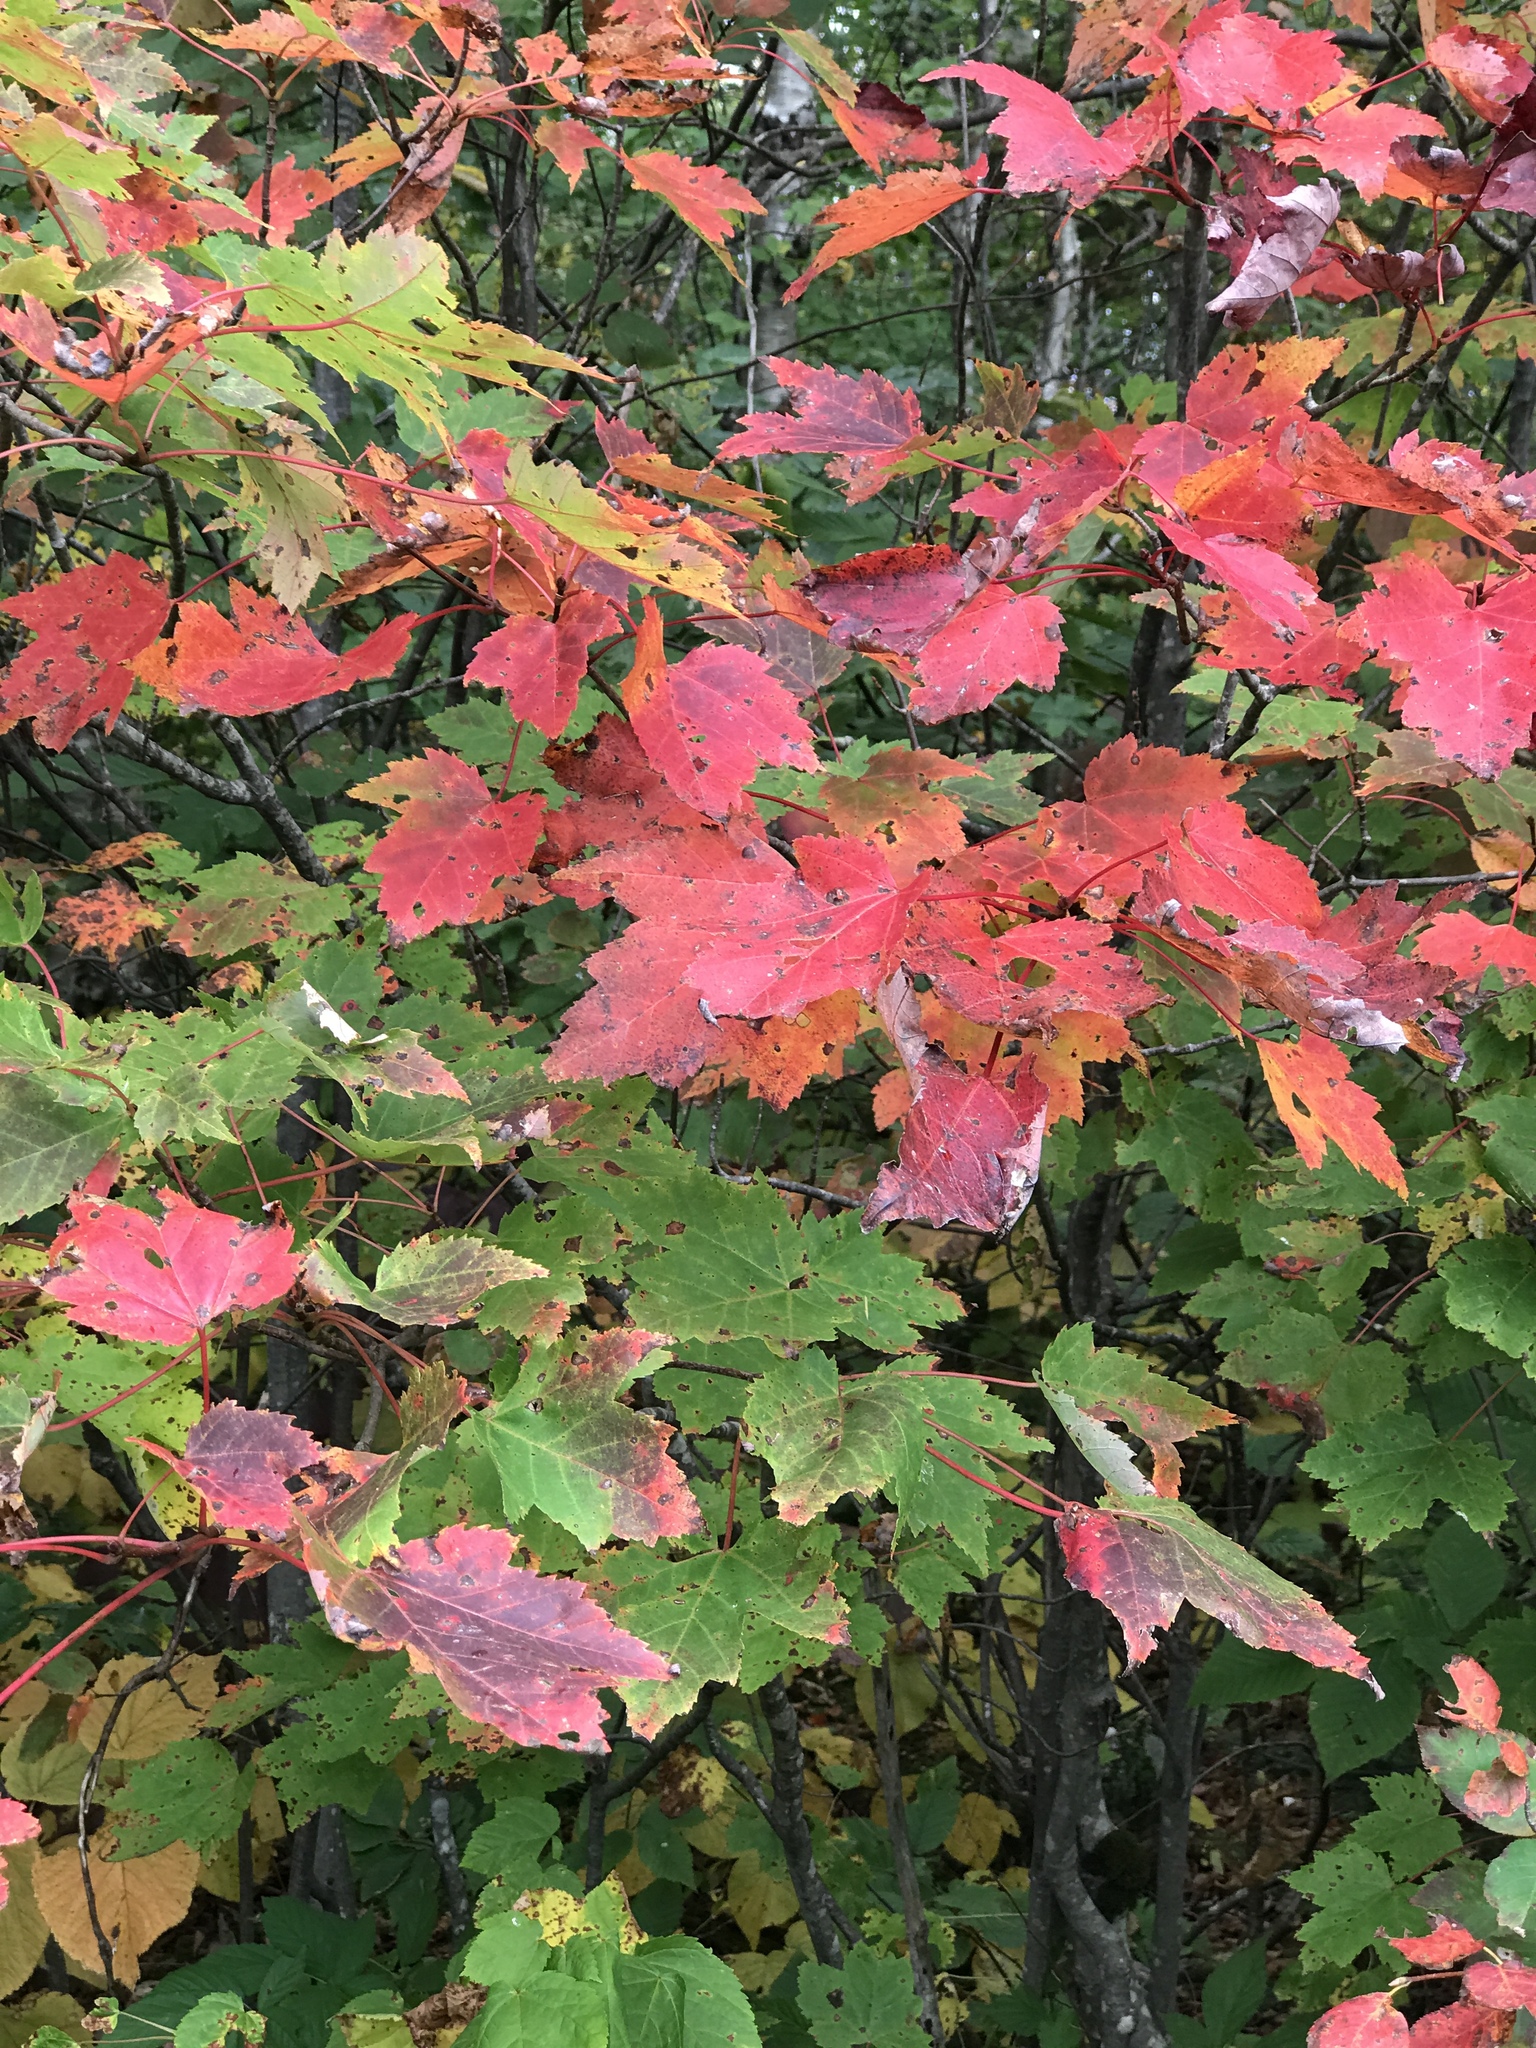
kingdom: Plantae
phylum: Tracheophyta
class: Magnoliopsida
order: Sapindales
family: Sapindaceae
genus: Acer
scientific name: Acer rubrum
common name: Red maple
